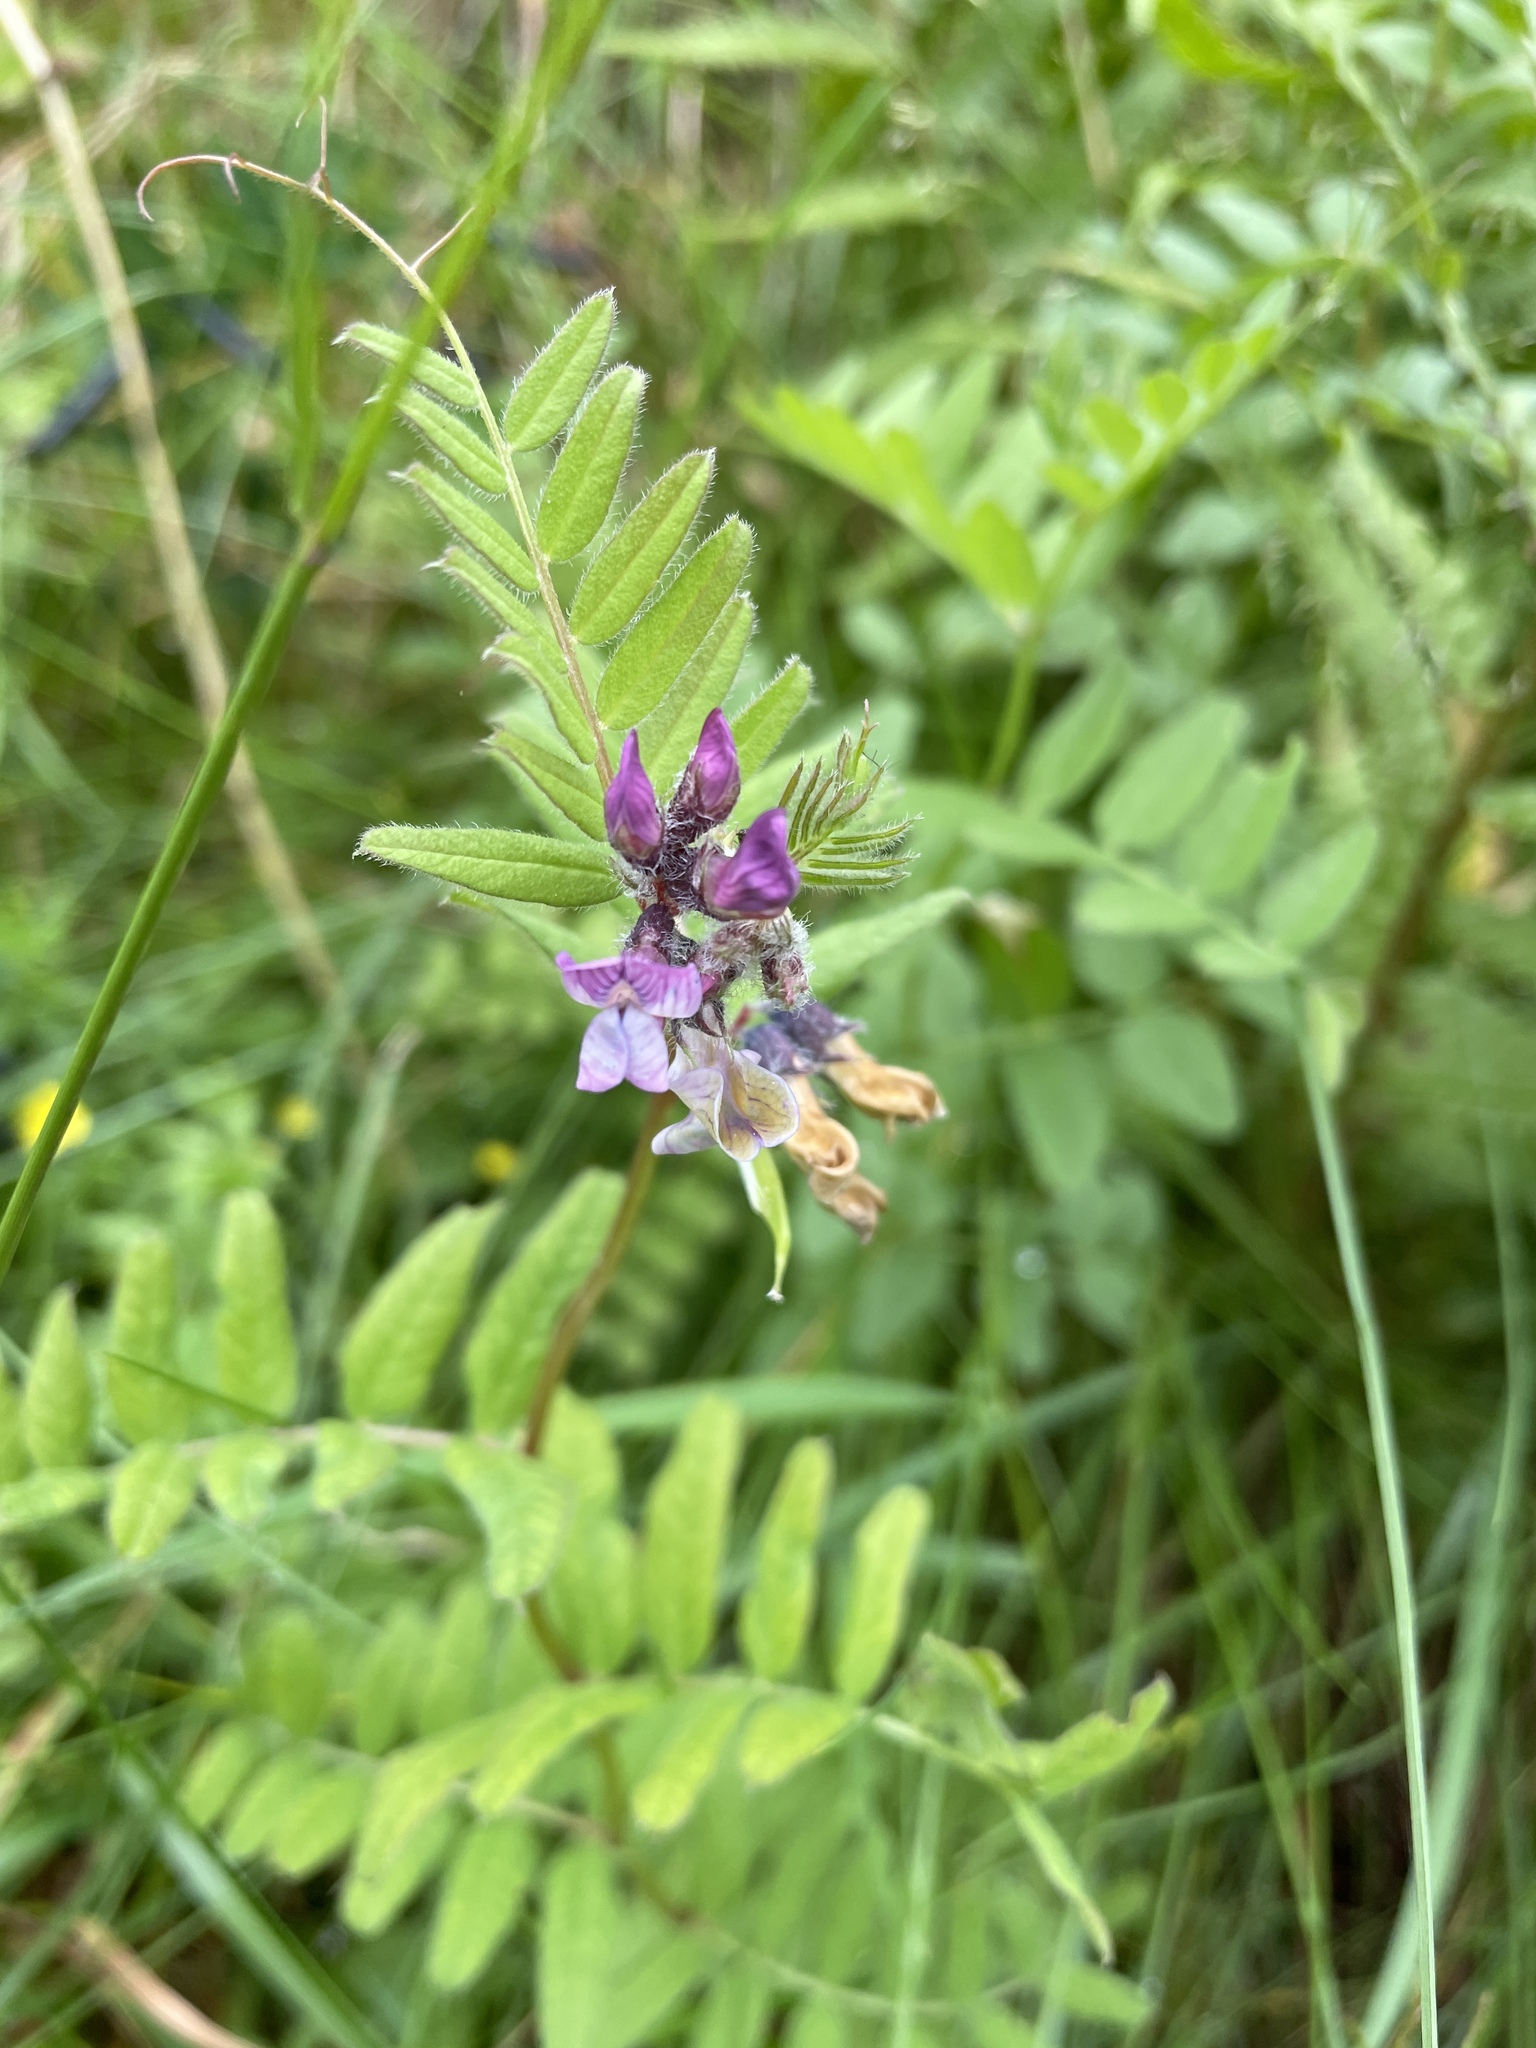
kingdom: Plantae
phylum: Tracheophyta
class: Magnoliopsida
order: Fabales
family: Fabaceae
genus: Vicia
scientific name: Vicia sepium
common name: Bush vetch
